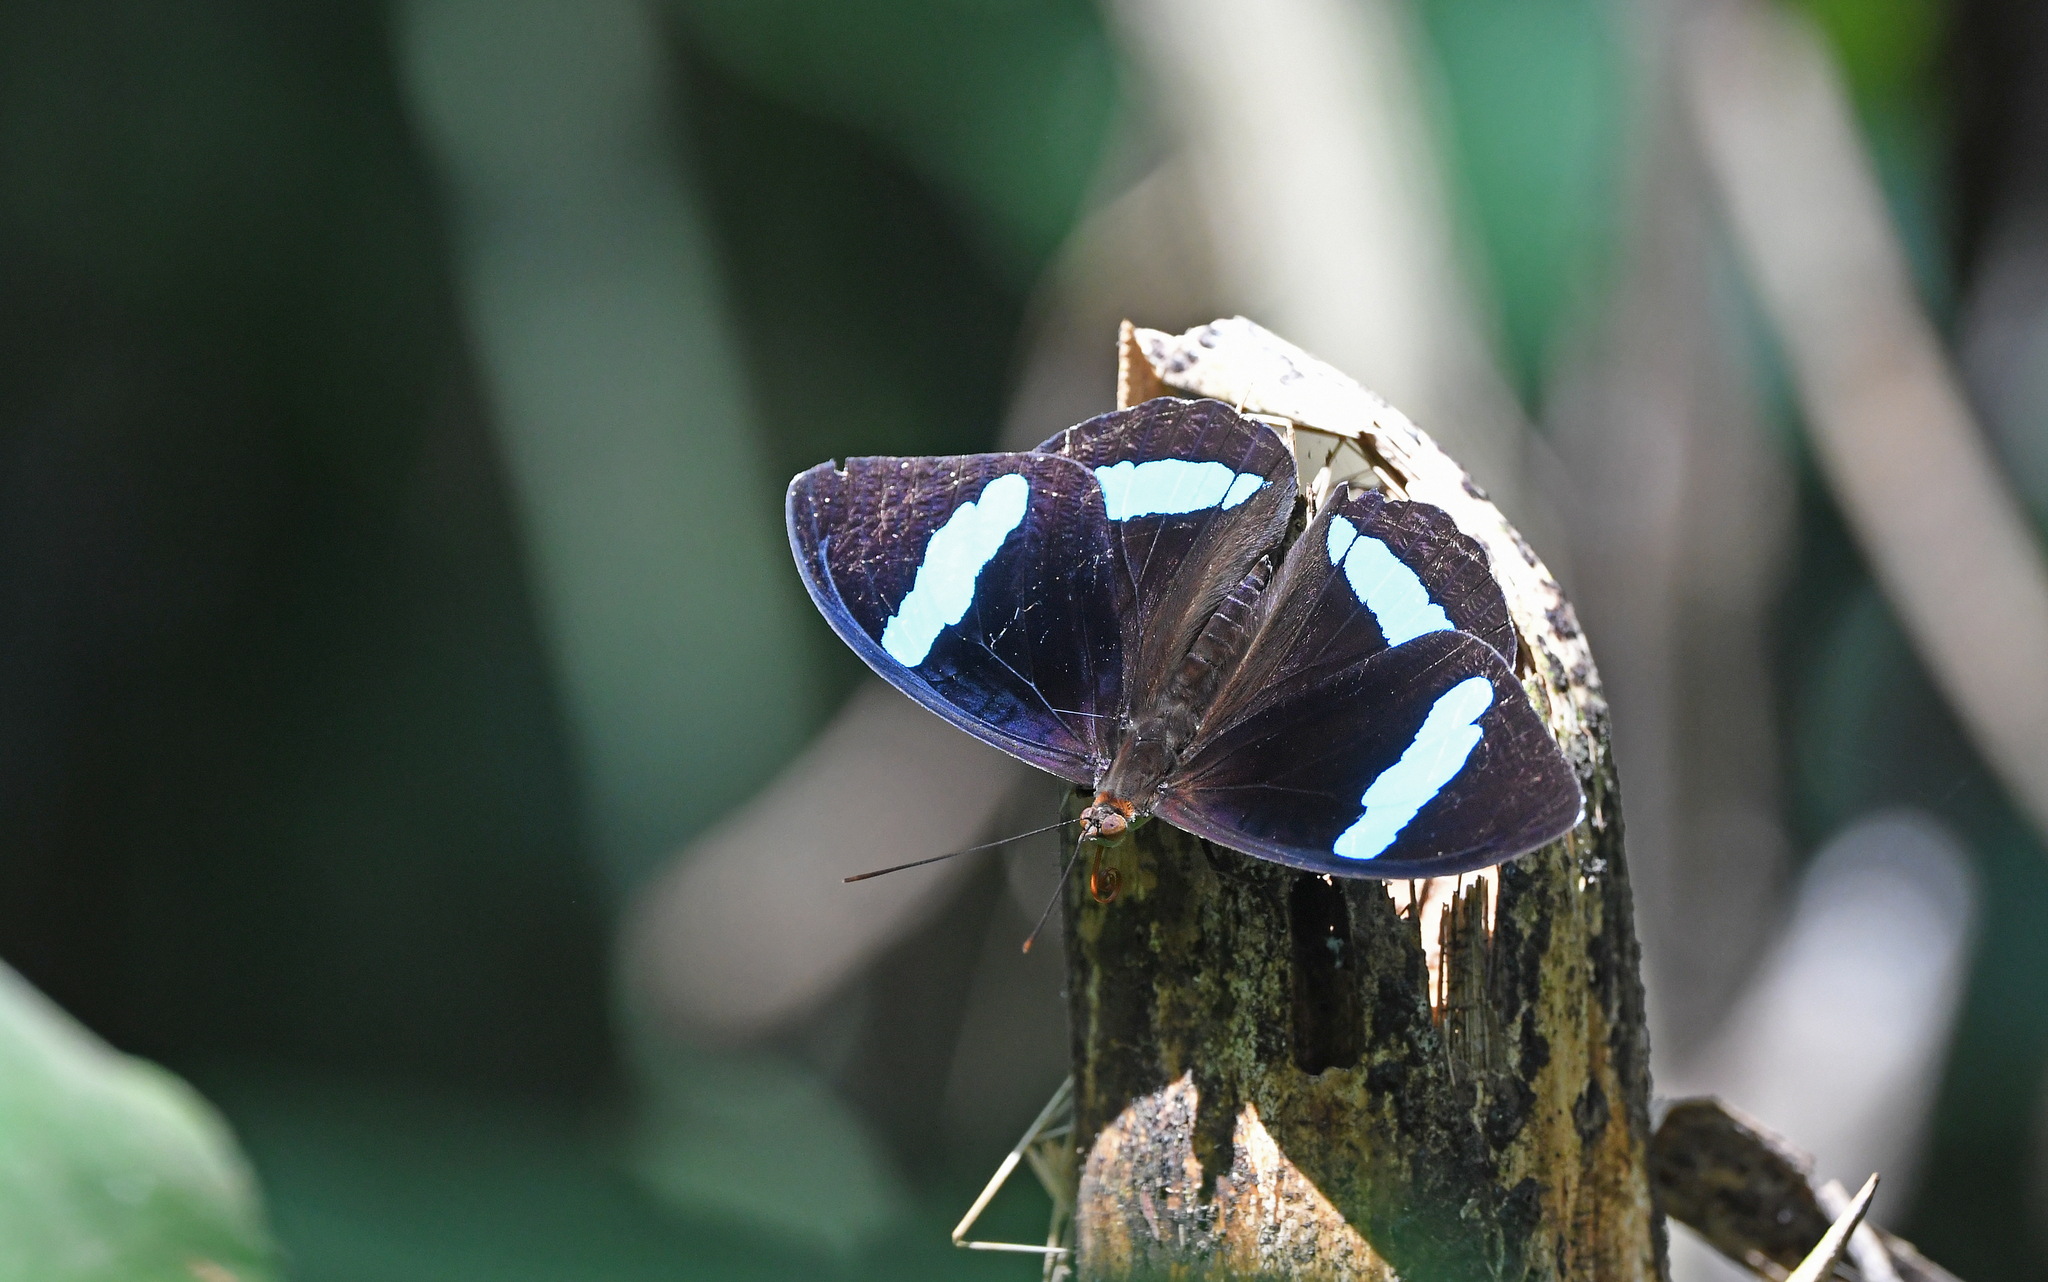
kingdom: Animalia
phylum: Arthropoda
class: Insecta
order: Lepidoptera
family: Nymphalidae
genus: Nessaea
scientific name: Nessaea hewitsonii
